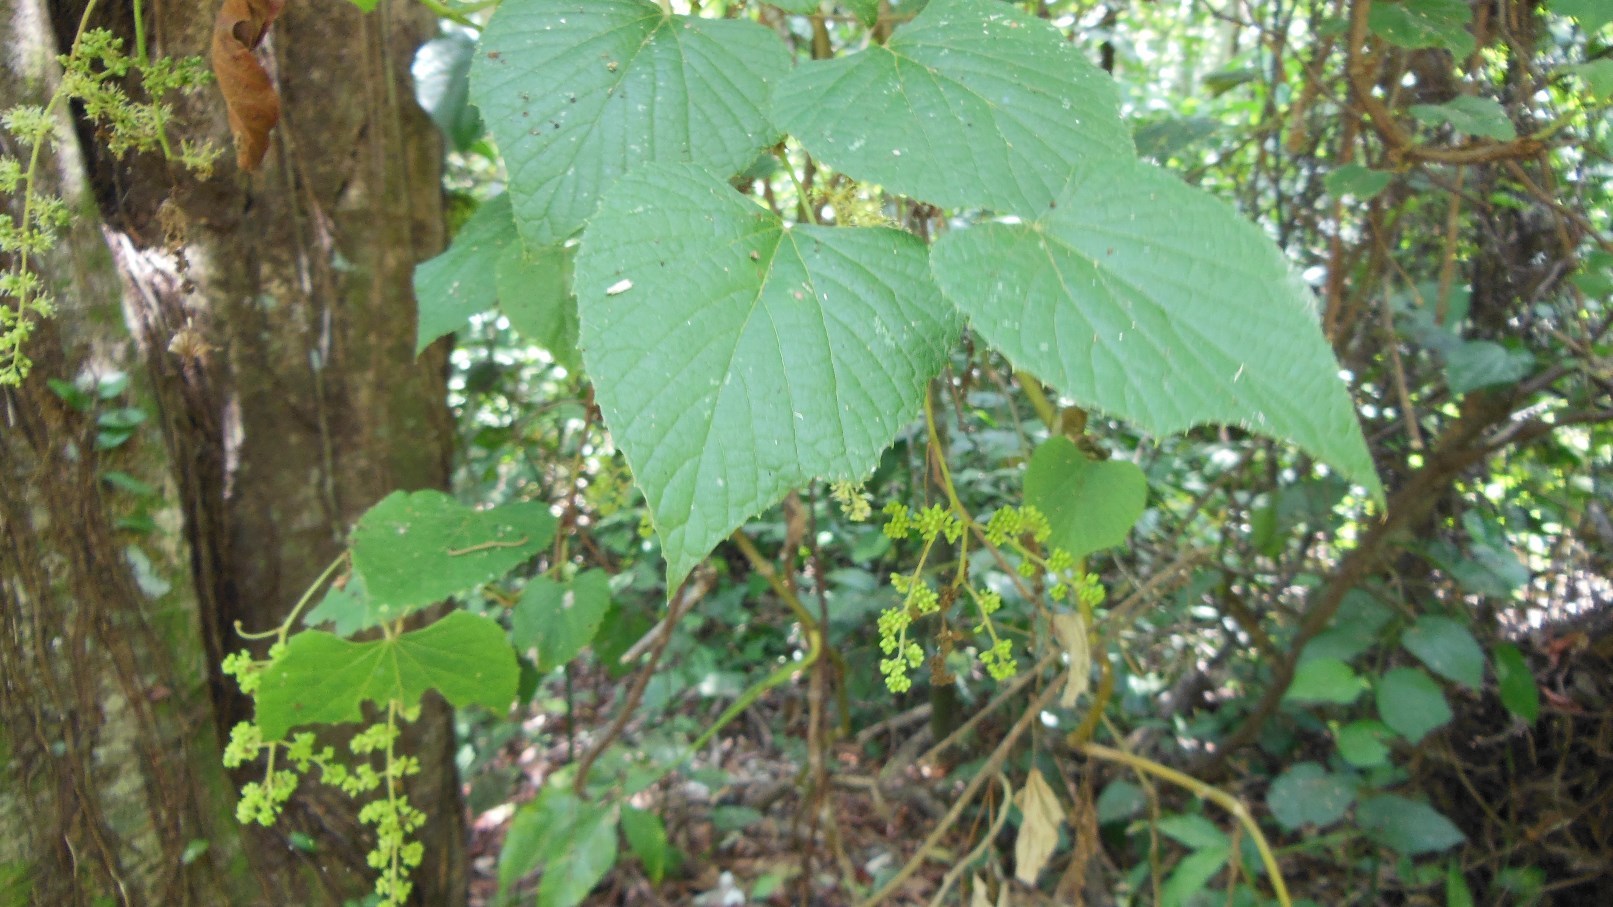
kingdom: Plantae
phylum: Tracheophyta
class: Magnoliopsida
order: Vitales
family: Vitaceae
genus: Vitis
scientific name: Vitis tiliifolia
